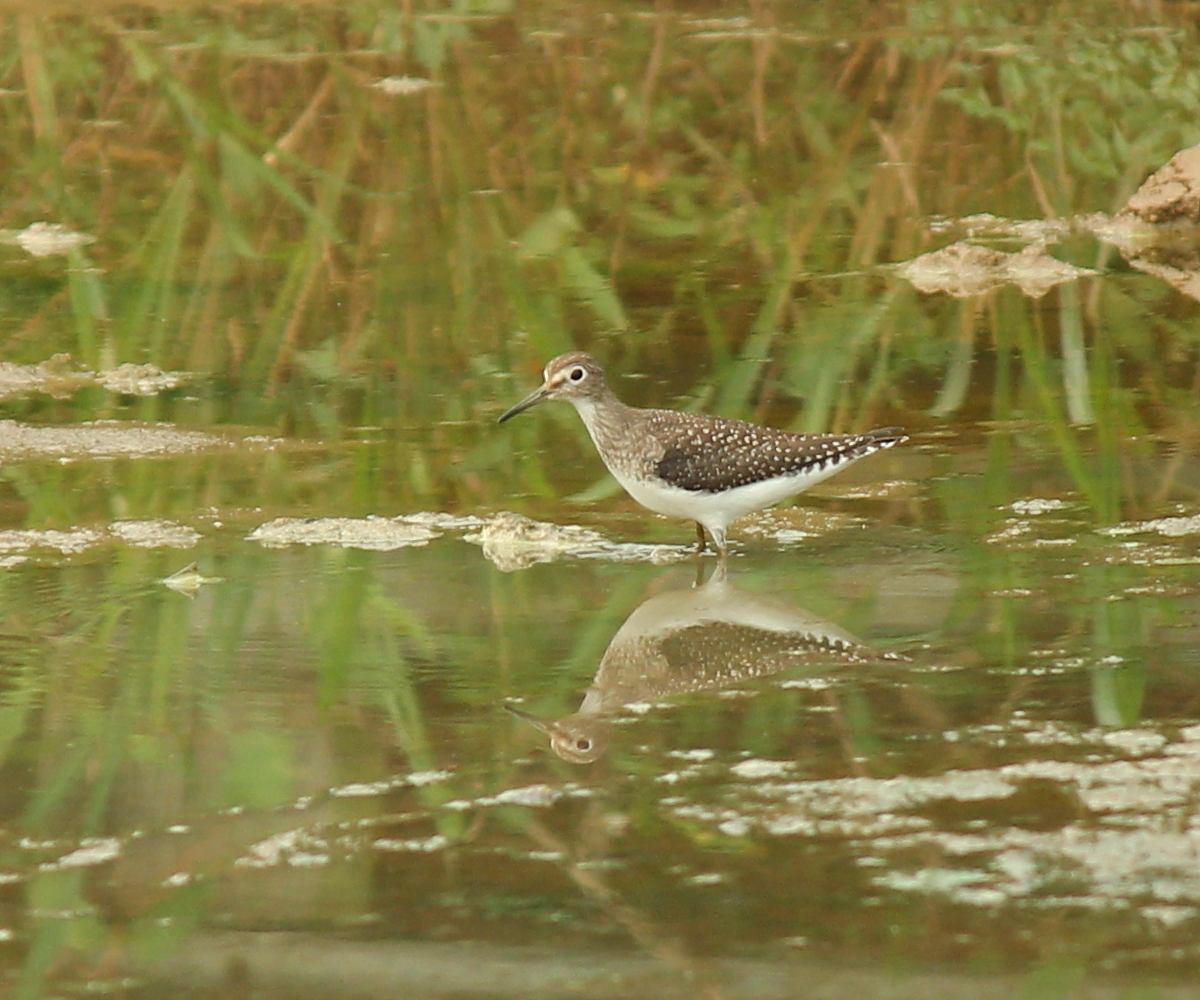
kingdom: Animalia
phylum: Chordata
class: Aves
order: Charadriiformes
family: Scolopacidae
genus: Tringa
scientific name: Tringa solitaria
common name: Solitary sandpiper
